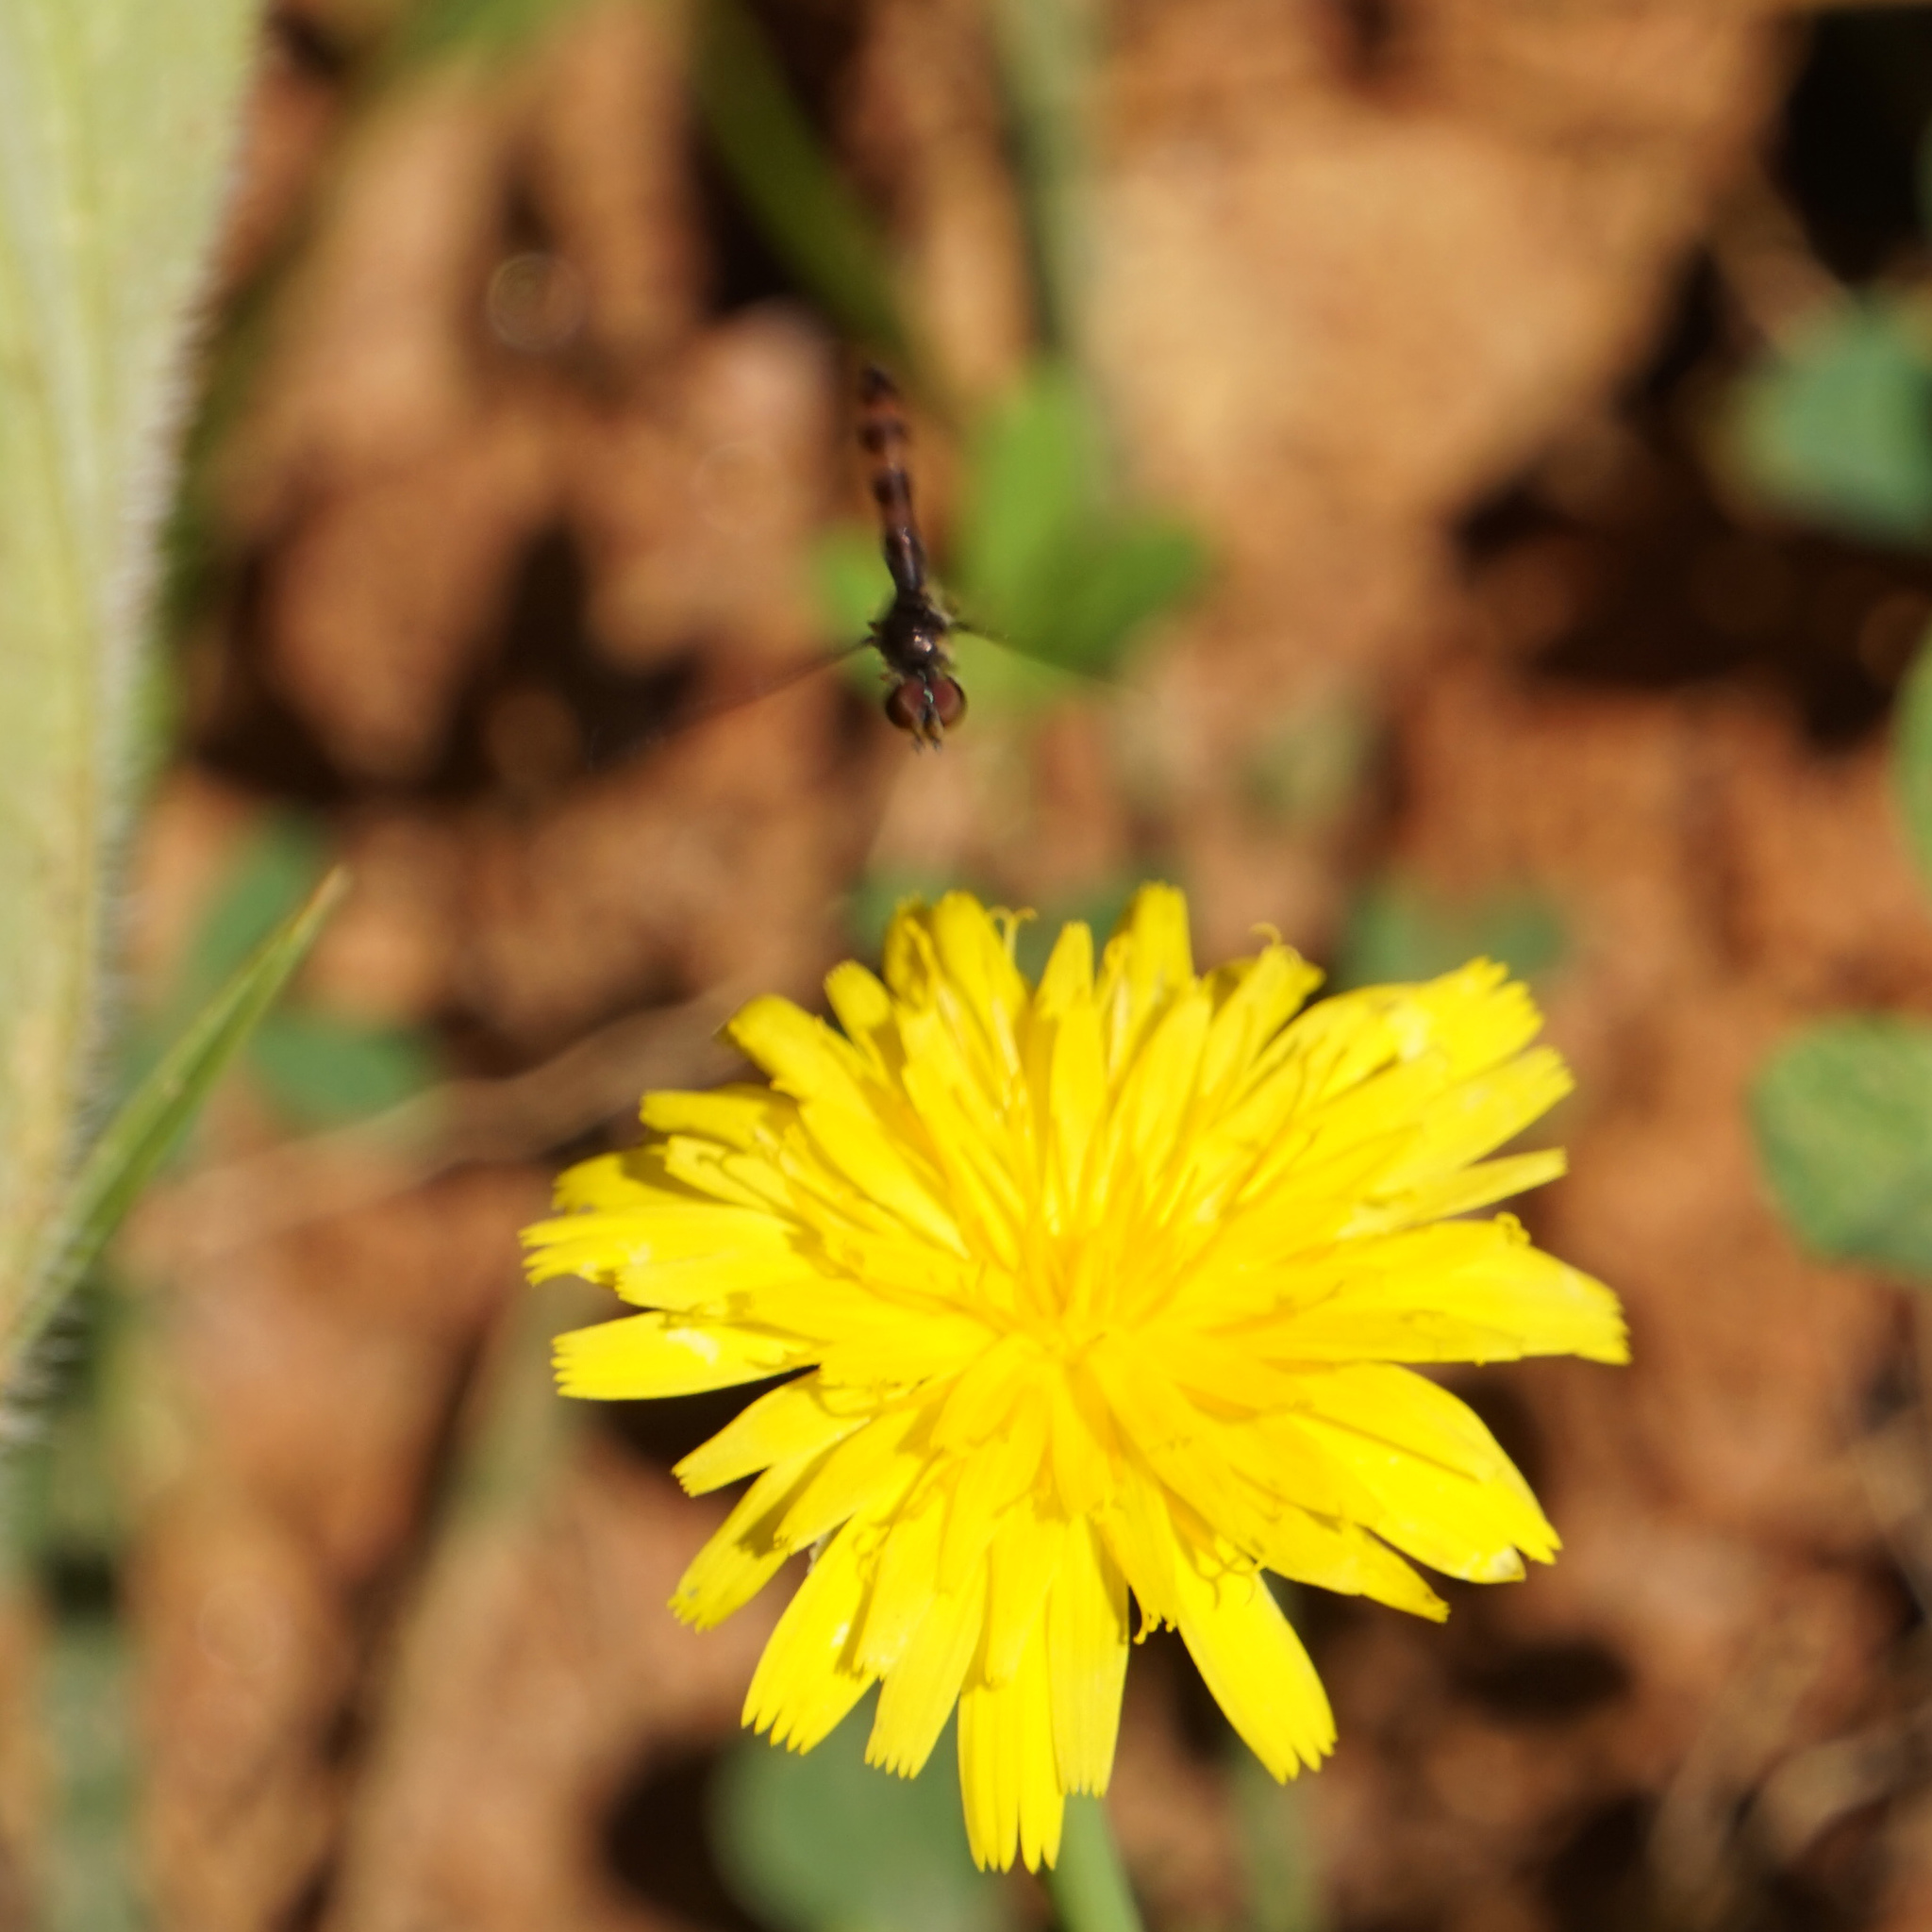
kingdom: Animalia
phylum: Arthropoda
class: Insecta
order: Diptera
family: Syrphidae
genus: Ocyptamus
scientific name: Ocyptamus fuscipennis
